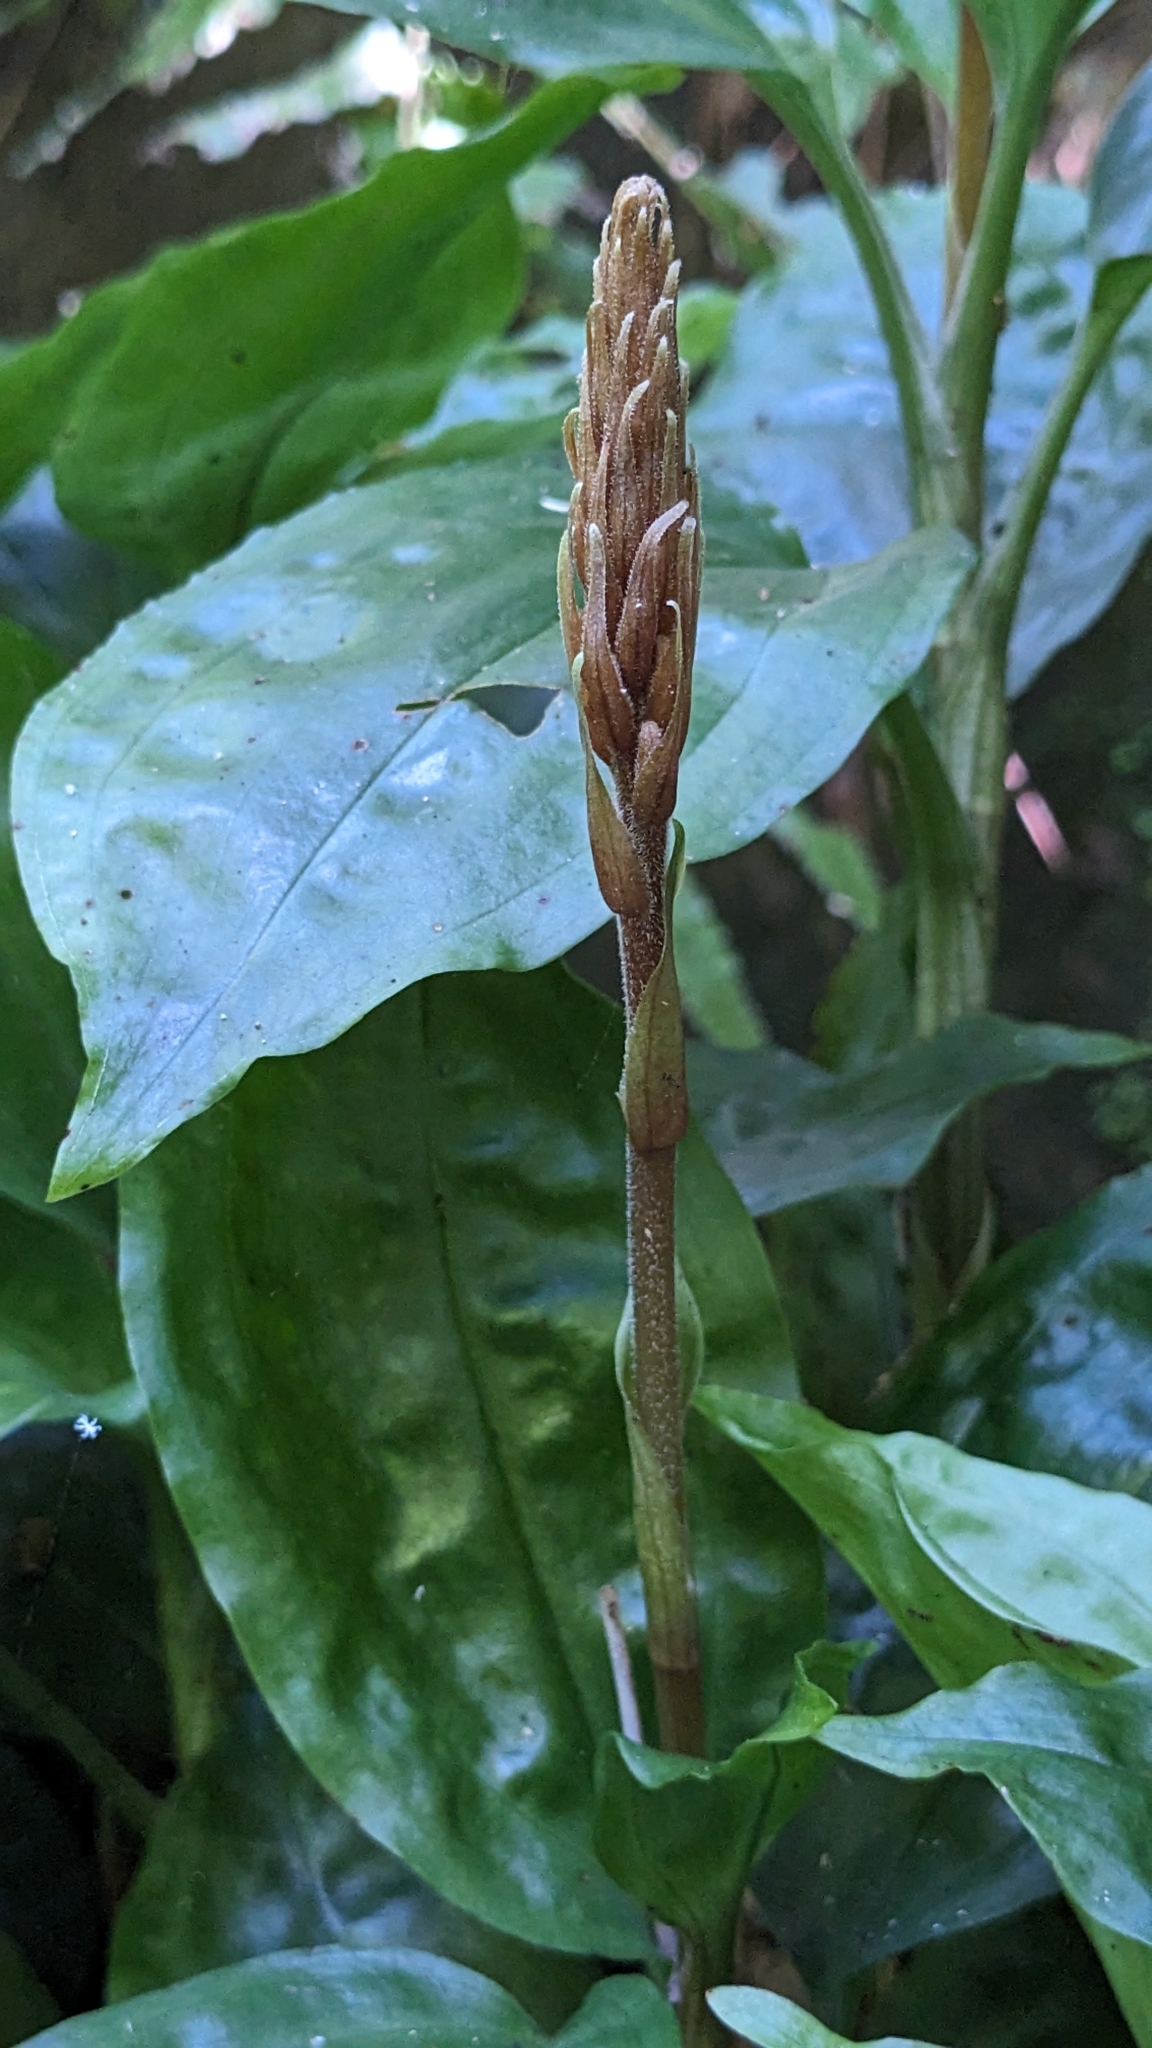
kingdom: Plantae
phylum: Tracheophyta
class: Liliopsida
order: Asparagales
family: Orchidaceae
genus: Goodyera
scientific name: Goodyera rubicunda
